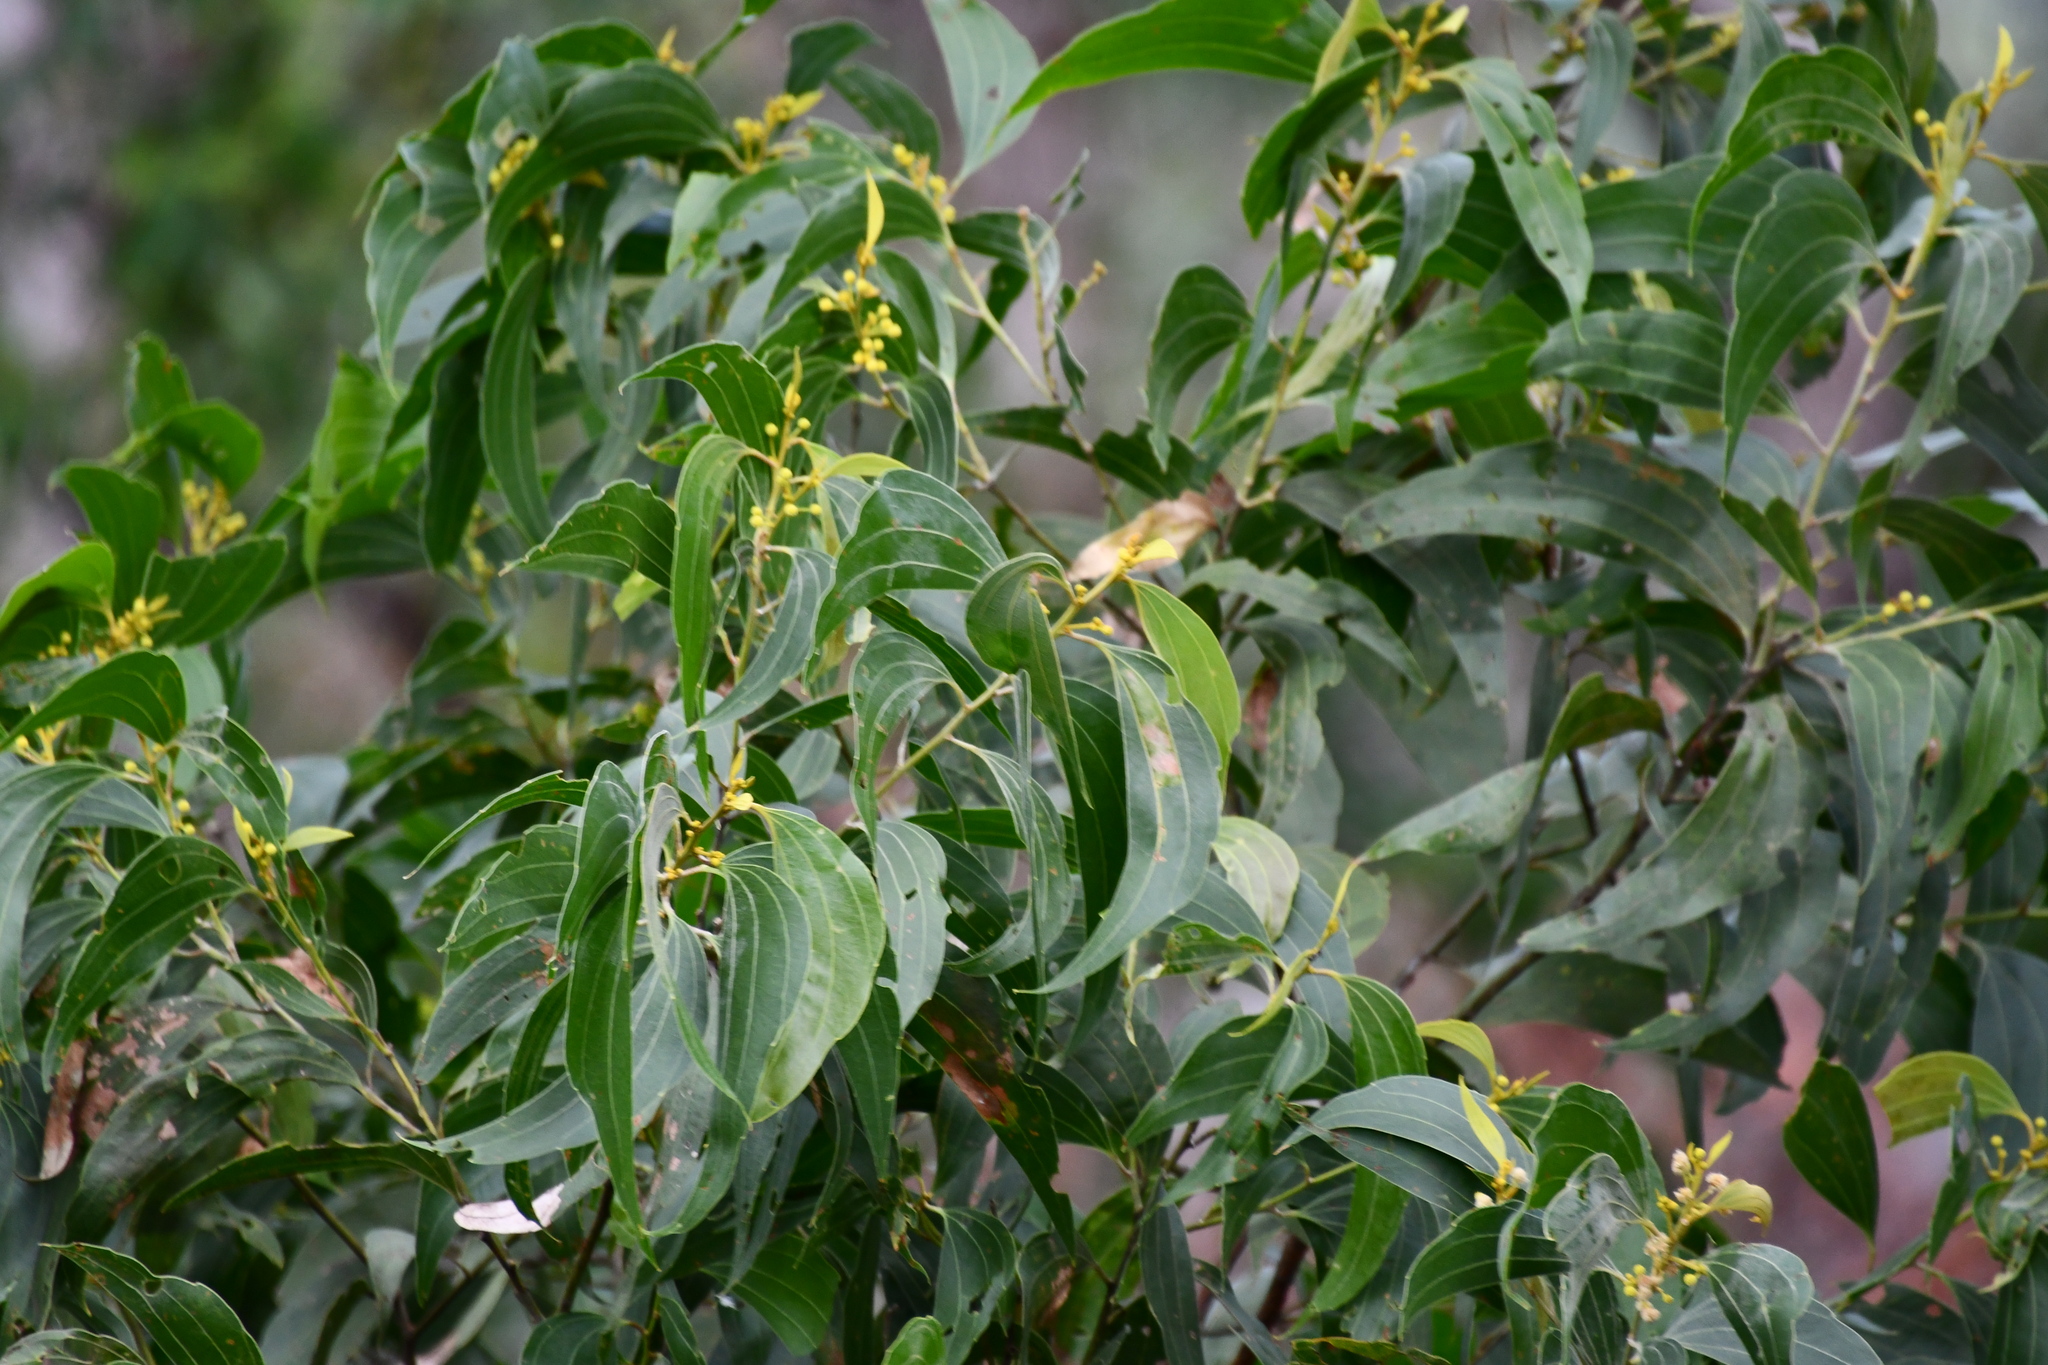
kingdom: Plantae
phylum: Tracheophyta
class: Magnoliopsida
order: Fabales
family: Fabaceae
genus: Acacia
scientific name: Acacia flavescens
